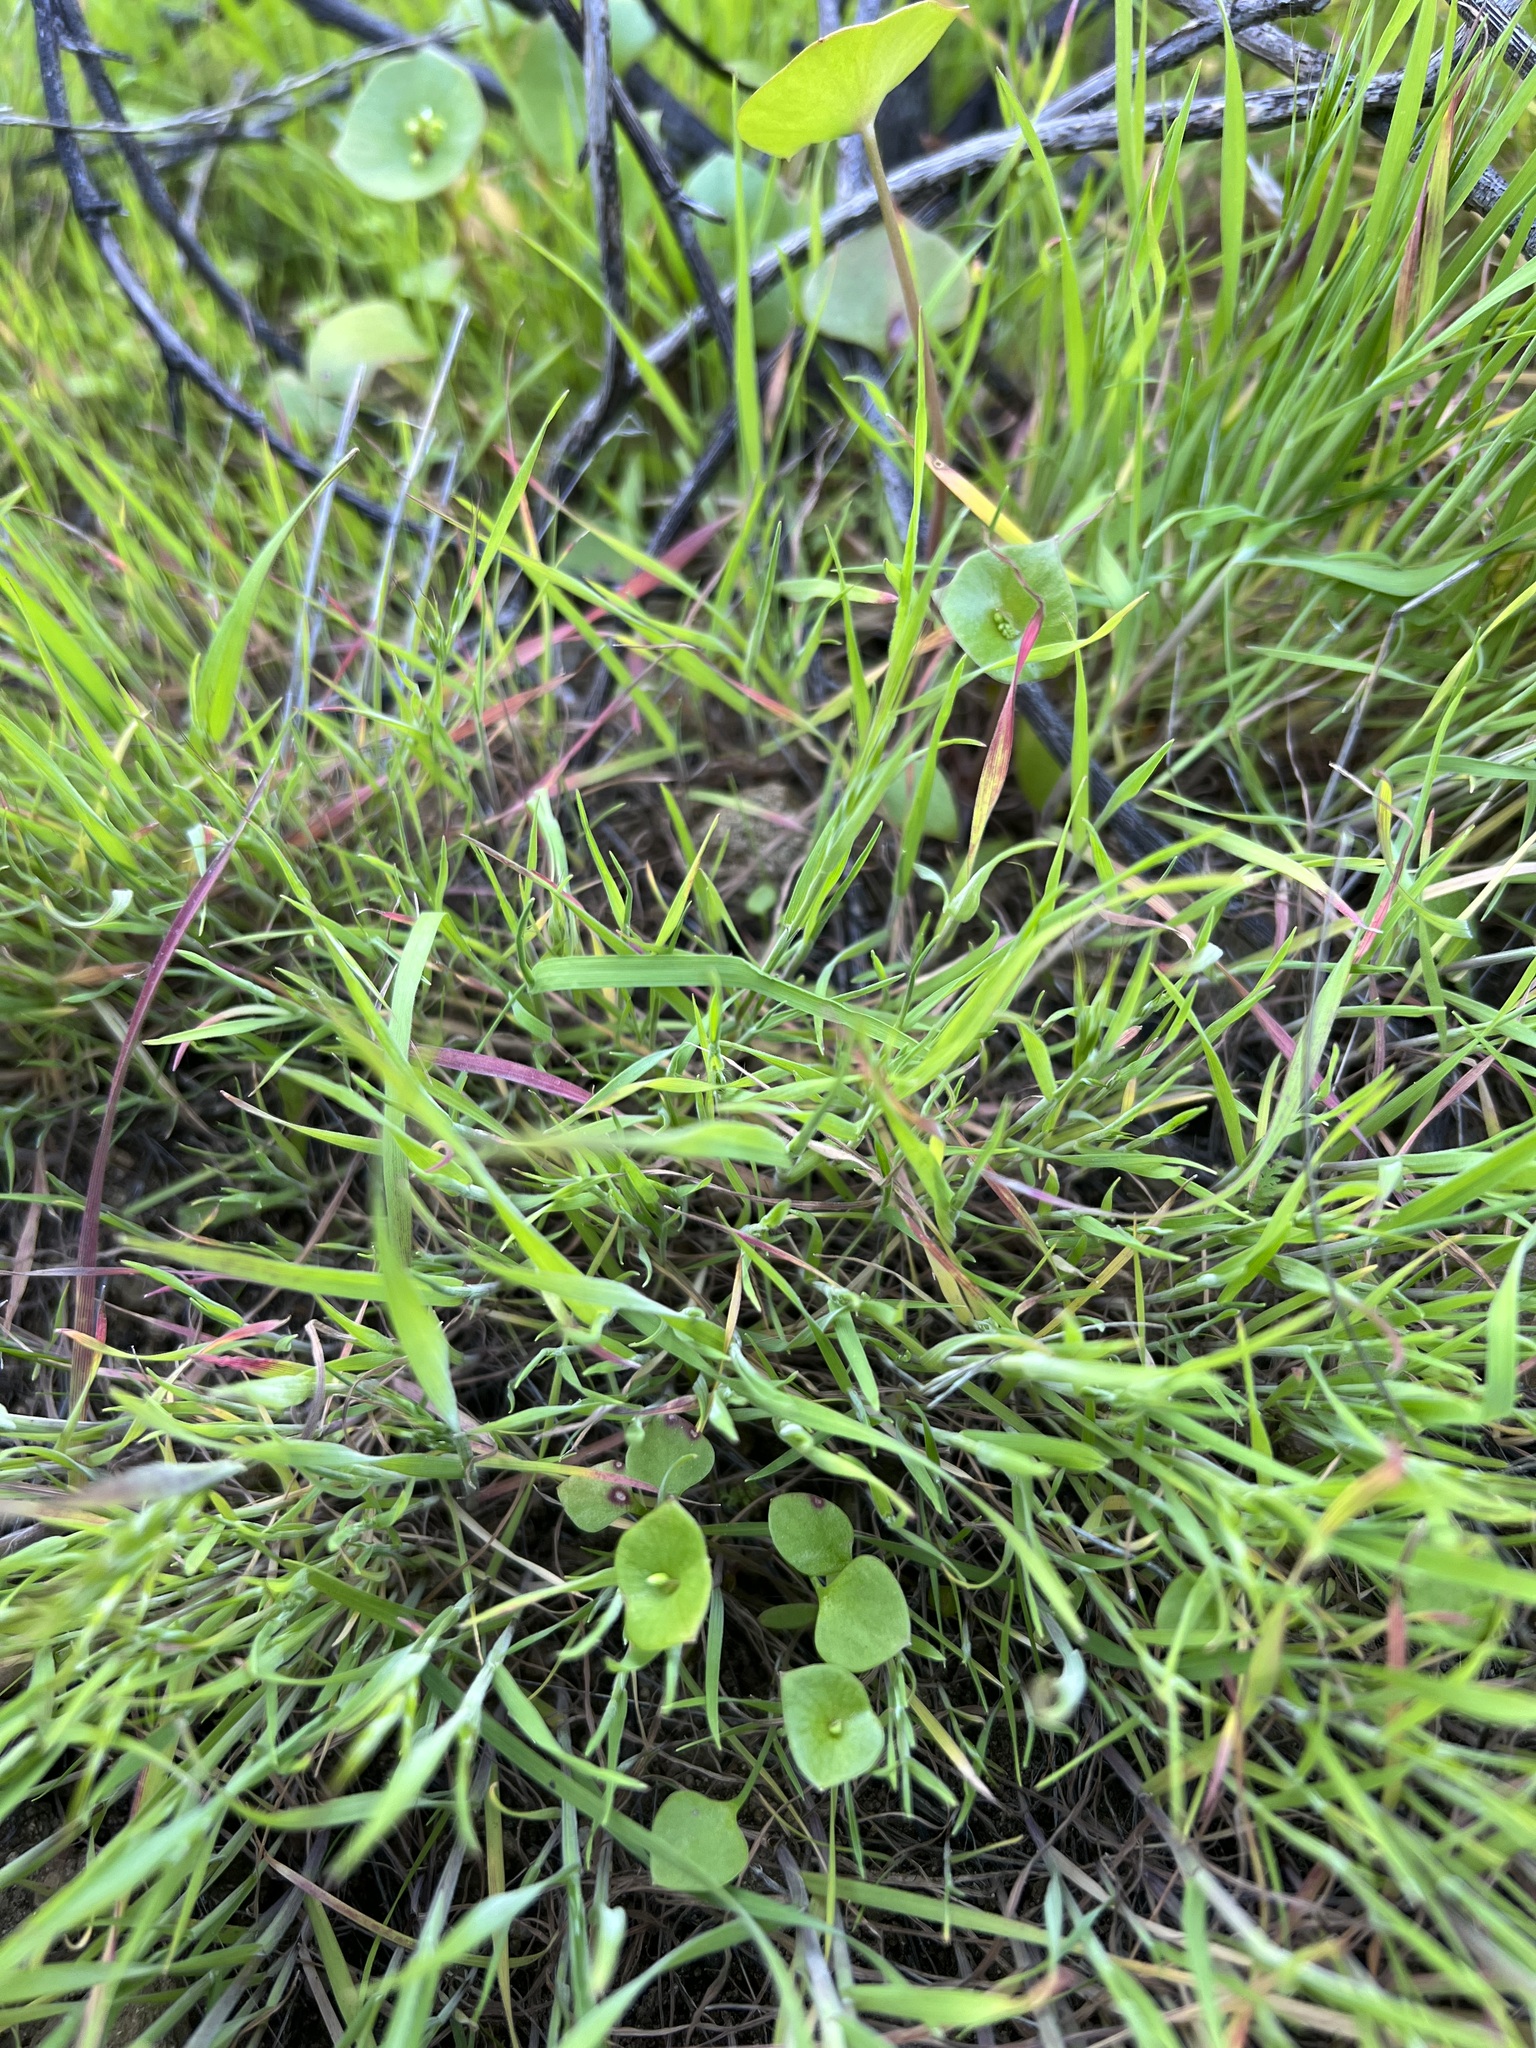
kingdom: Plantae
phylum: Tracheophyta
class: Magnoliopsida
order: Caryophyllales
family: Montiaceae
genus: Claytonia
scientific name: Claytonia perfoliata
